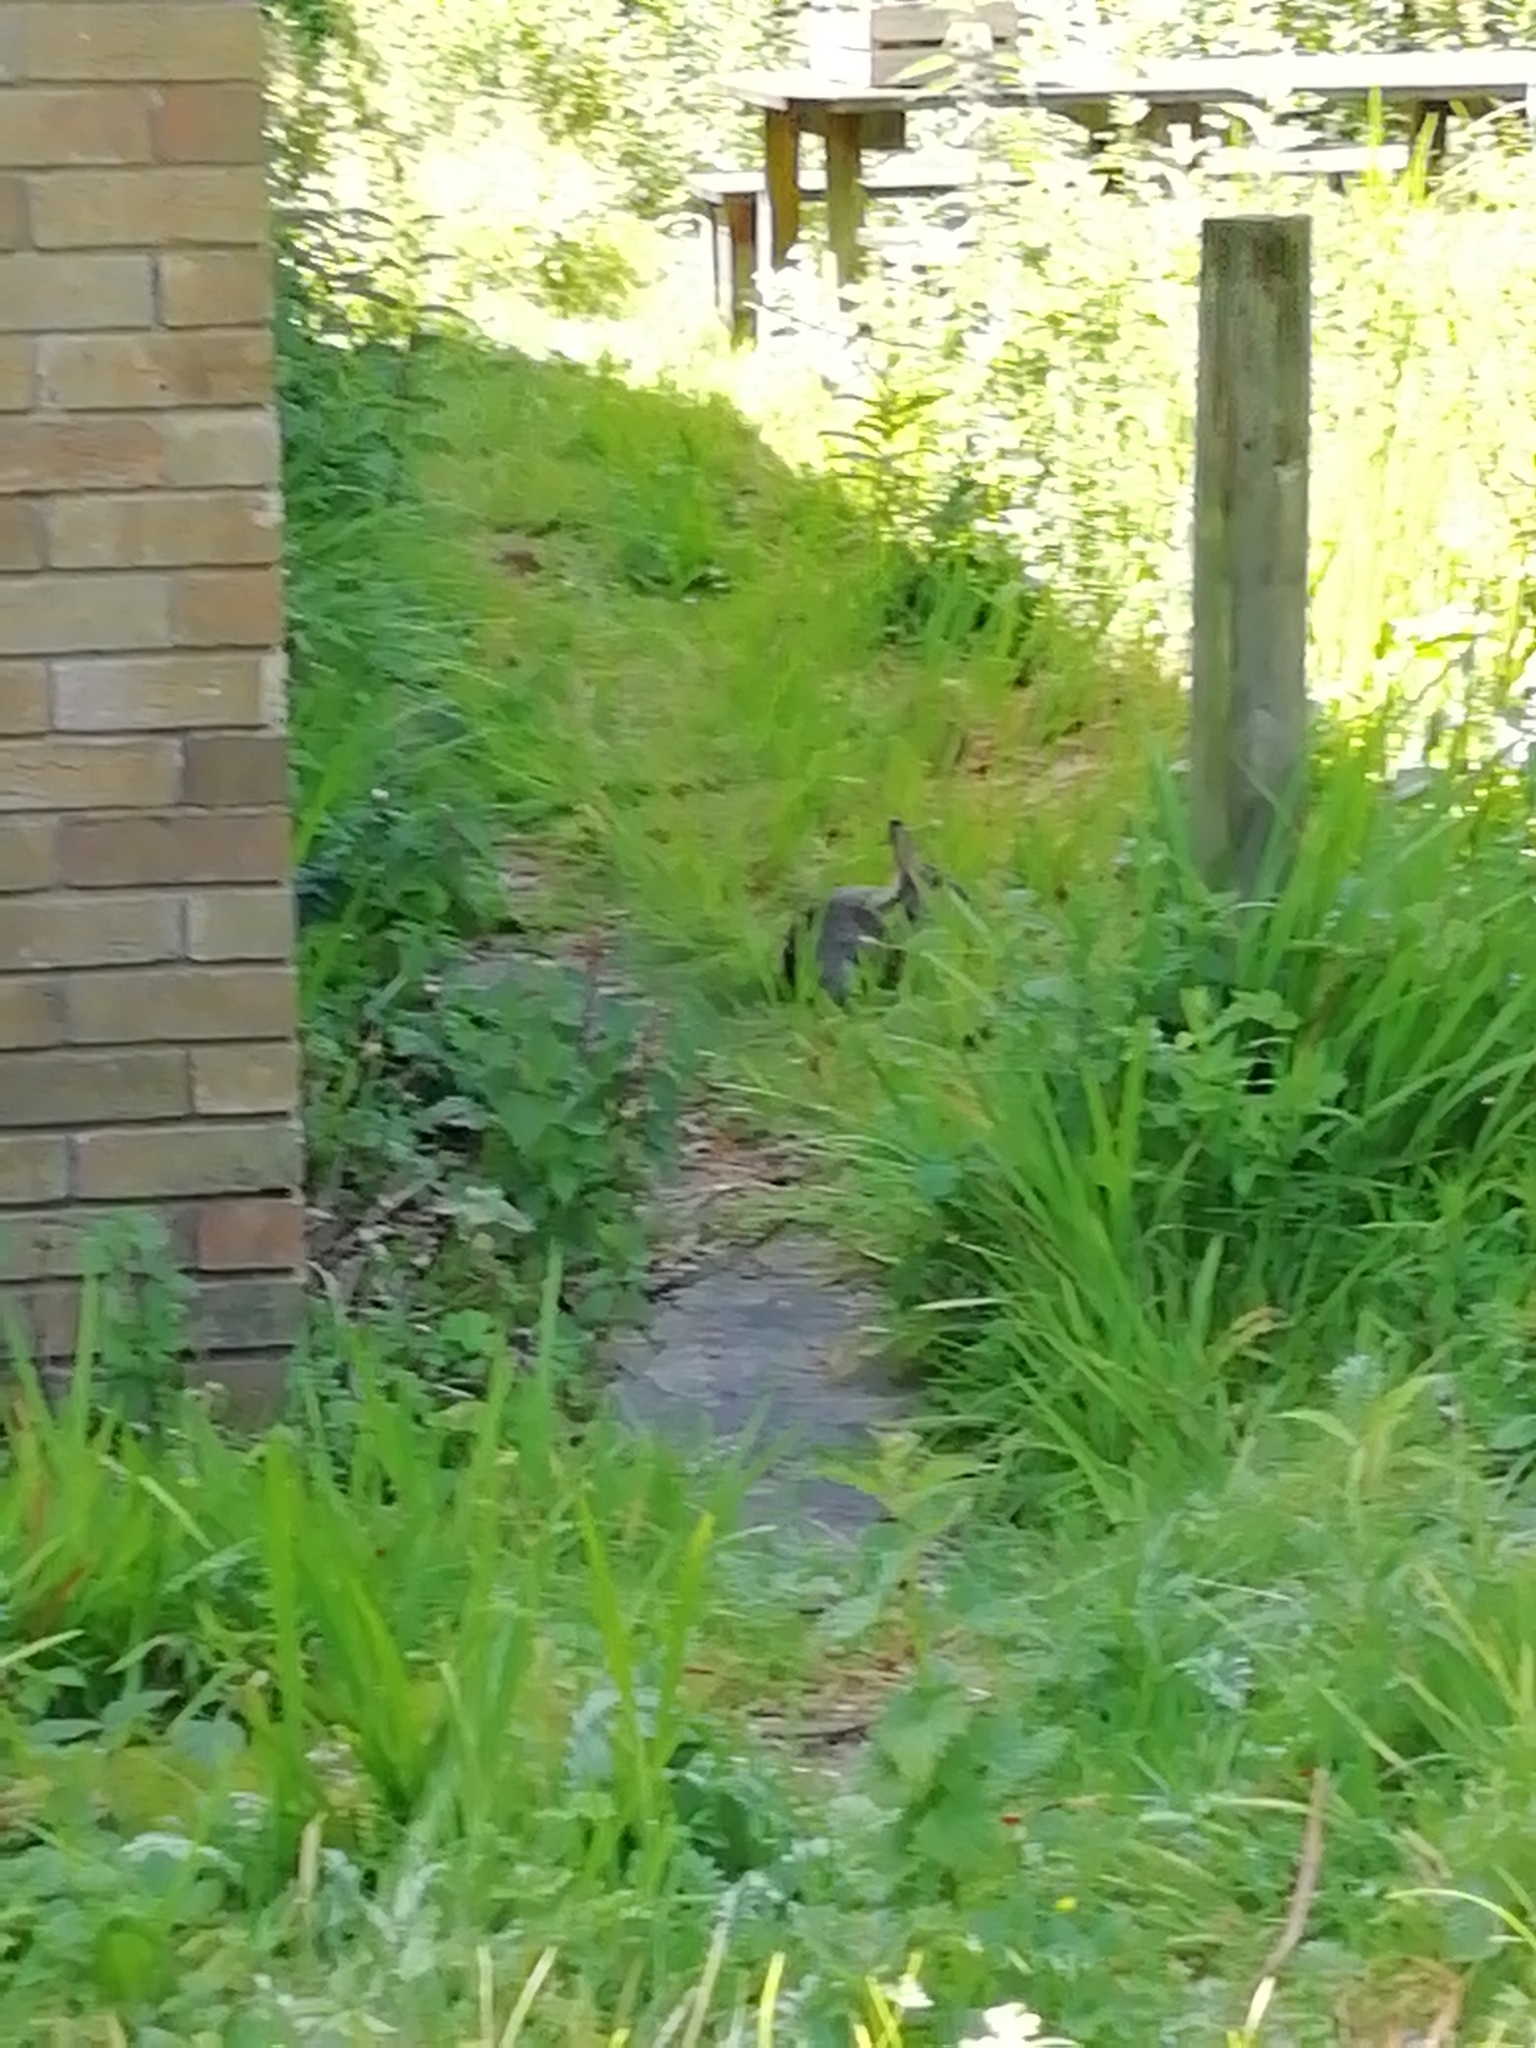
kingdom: Animalia
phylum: Chordata
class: Mammalia
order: Lagomorpha
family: Leporidae
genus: Oryctolagus
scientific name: Oryctolagus cuniculus
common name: European rabbit
